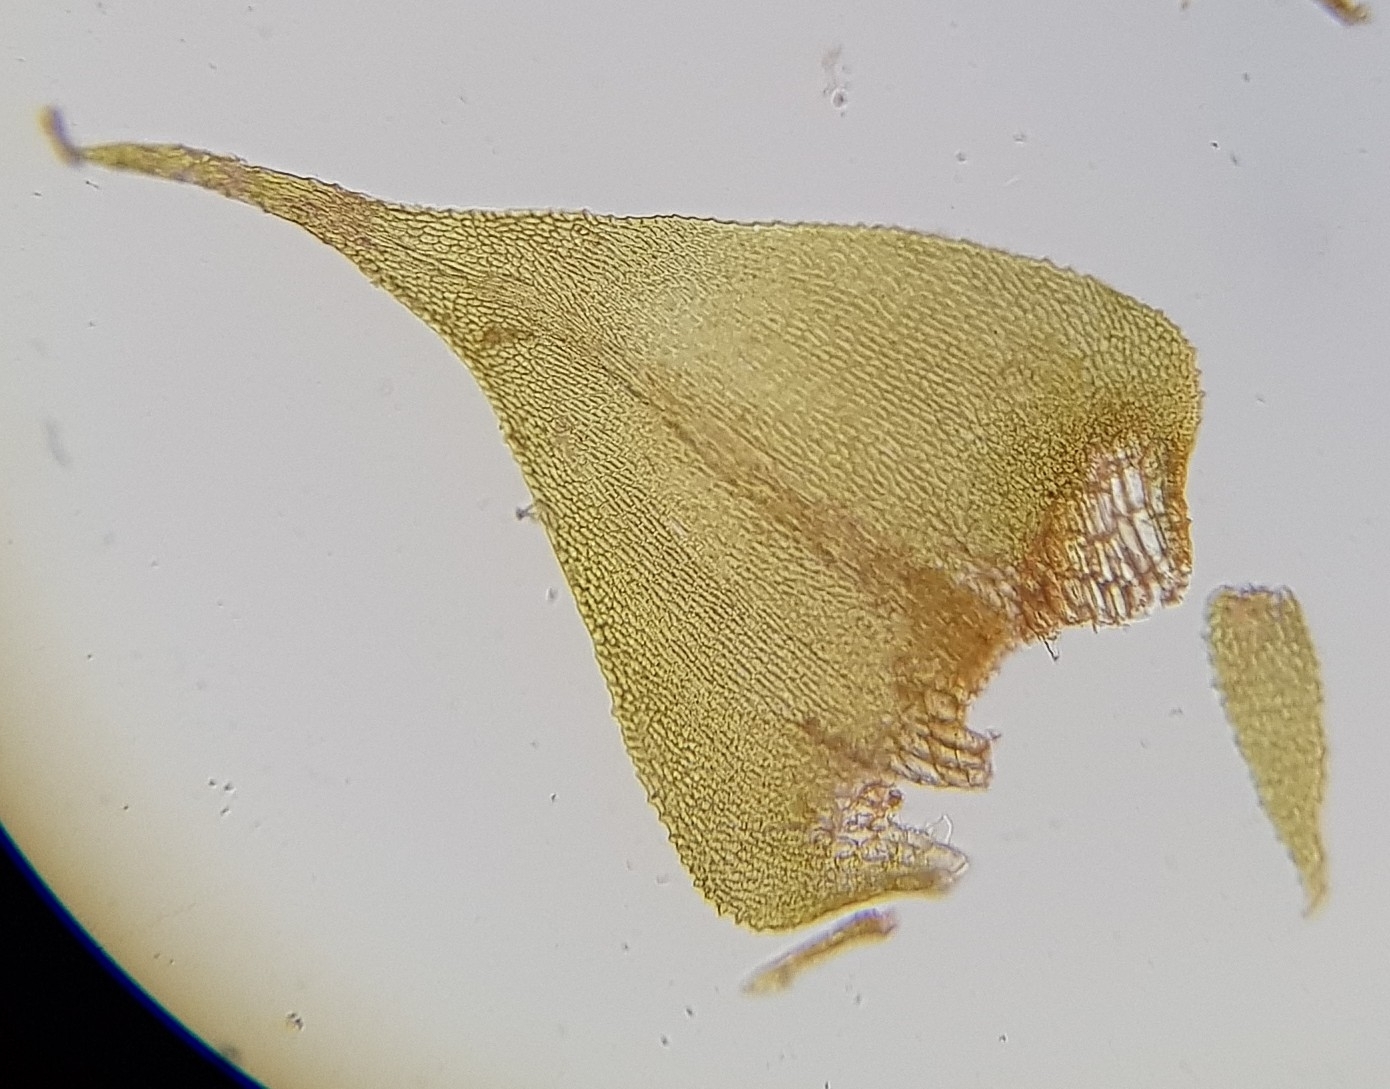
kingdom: Plantae
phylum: Bryophyta
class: Bryopsida
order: Hypnales
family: Amblystegiaceae
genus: Cratoneuron
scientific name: Cratoneuron filicinum
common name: Fern-leaved hook moss
